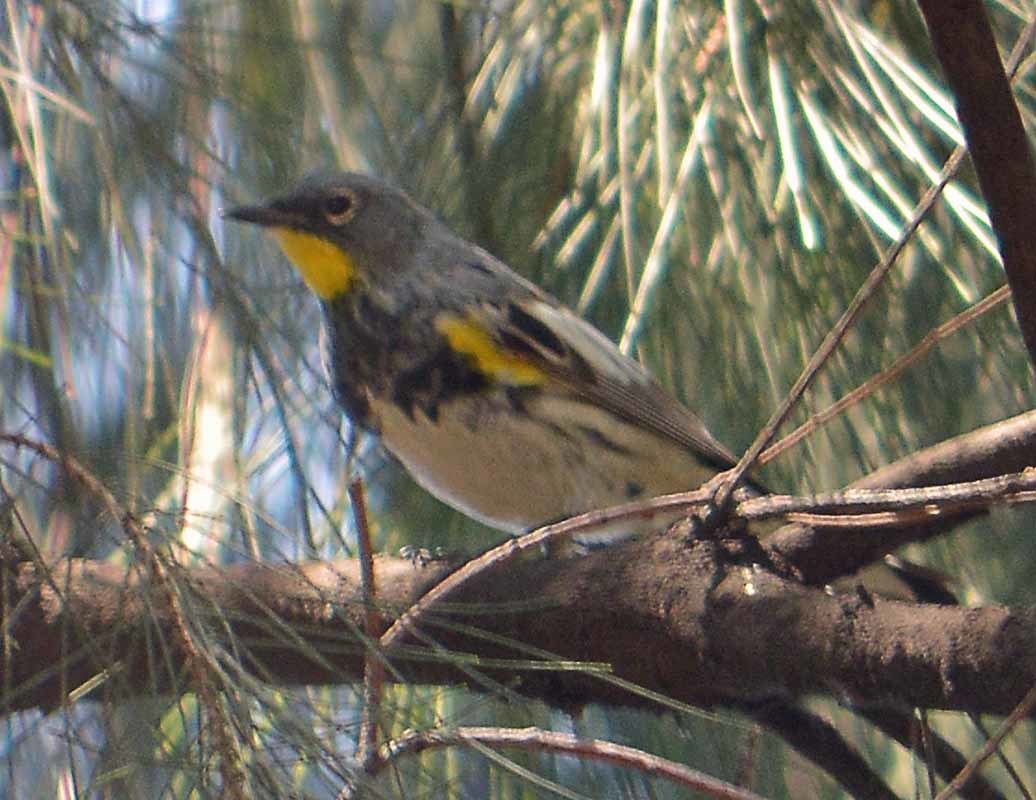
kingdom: Animalia
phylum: Chordata
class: Aves
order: Passeriformes
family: Parulidae
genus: Setophaga
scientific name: Setophaga auduboni
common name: Audubon's warbler
